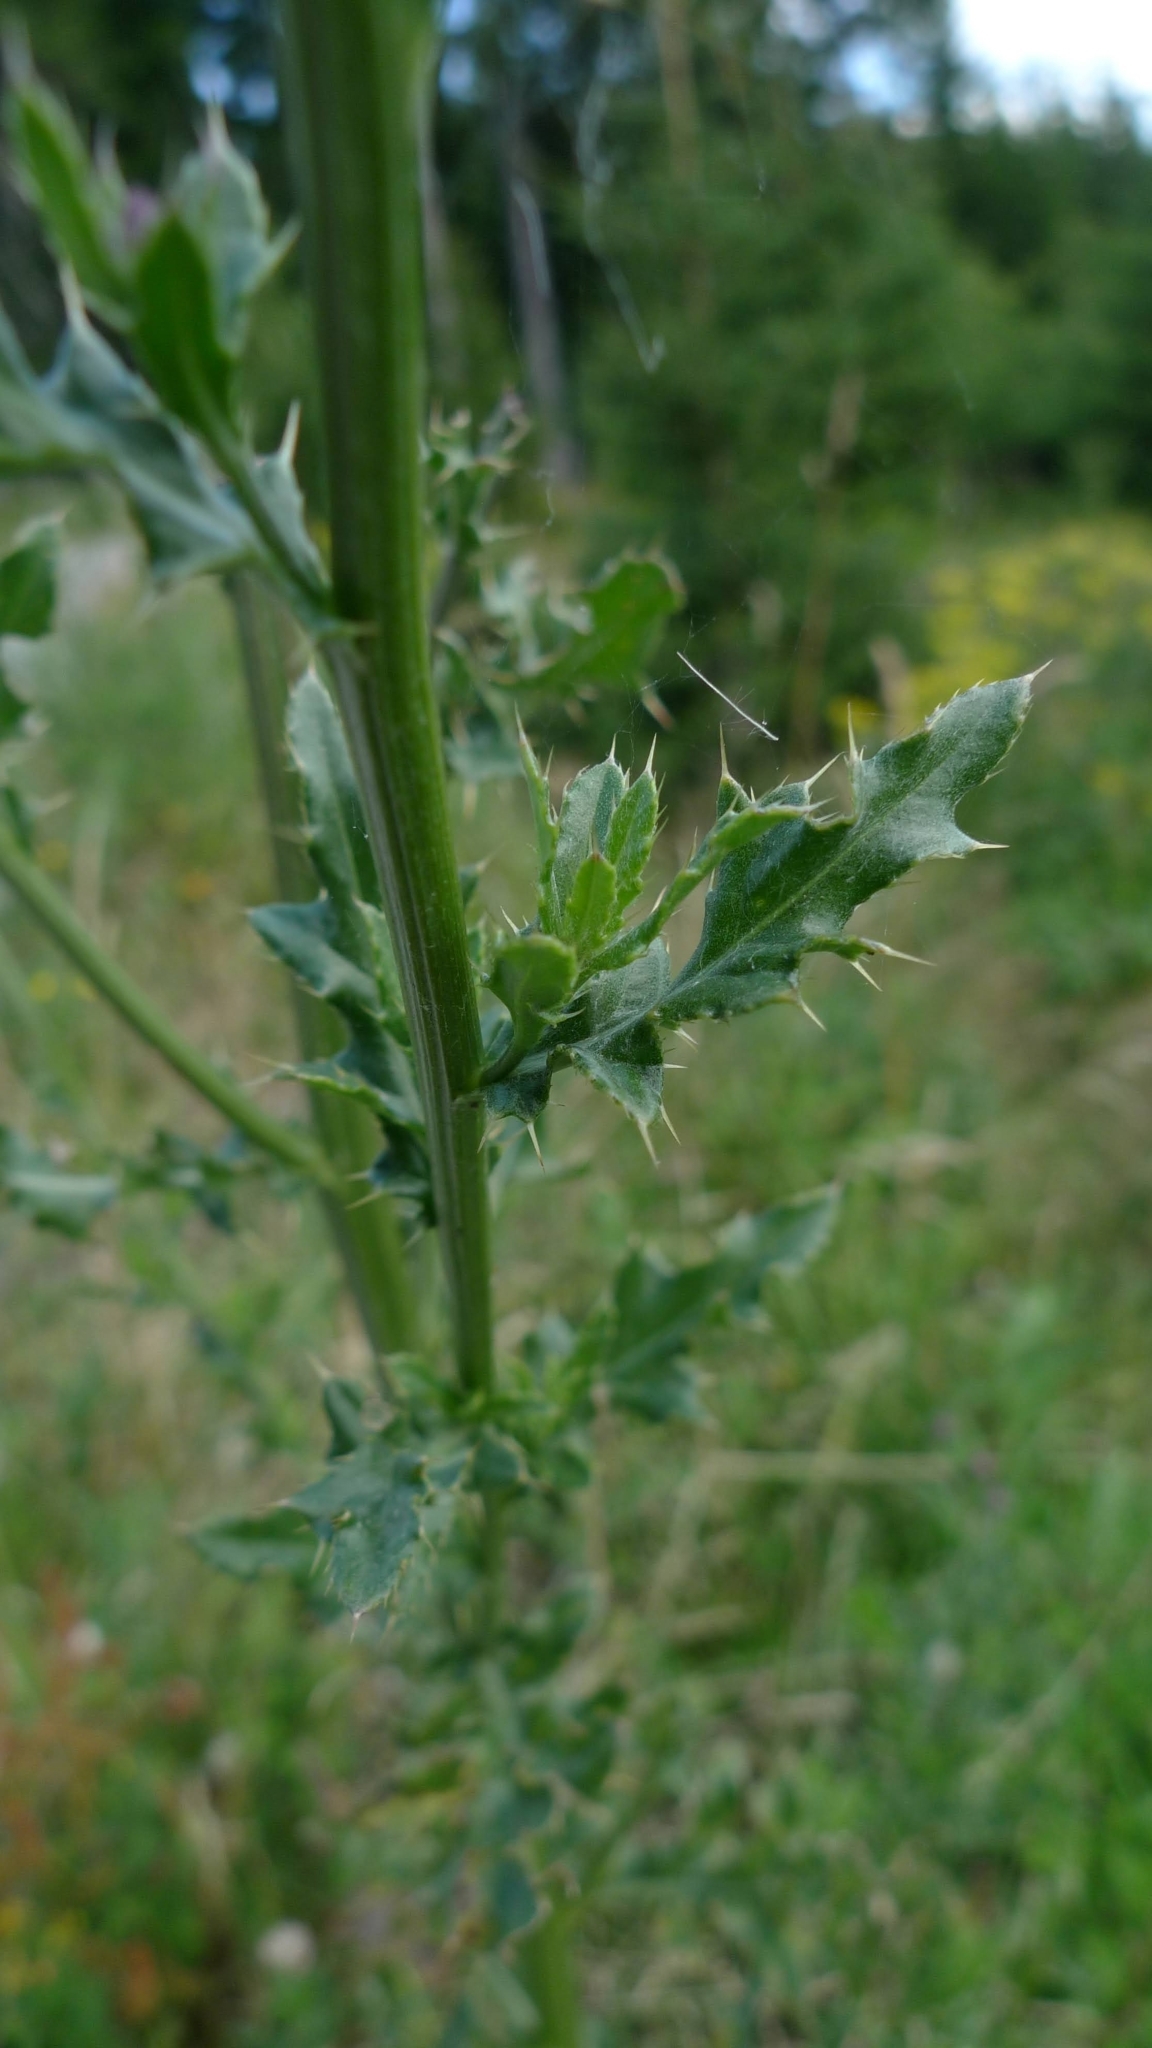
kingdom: Plantae
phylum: Tracheophyta
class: Magnoliopsida
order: Asterales
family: Asteraceae
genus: Cirsium
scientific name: Cirsium arvense
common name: Creeping thistle
